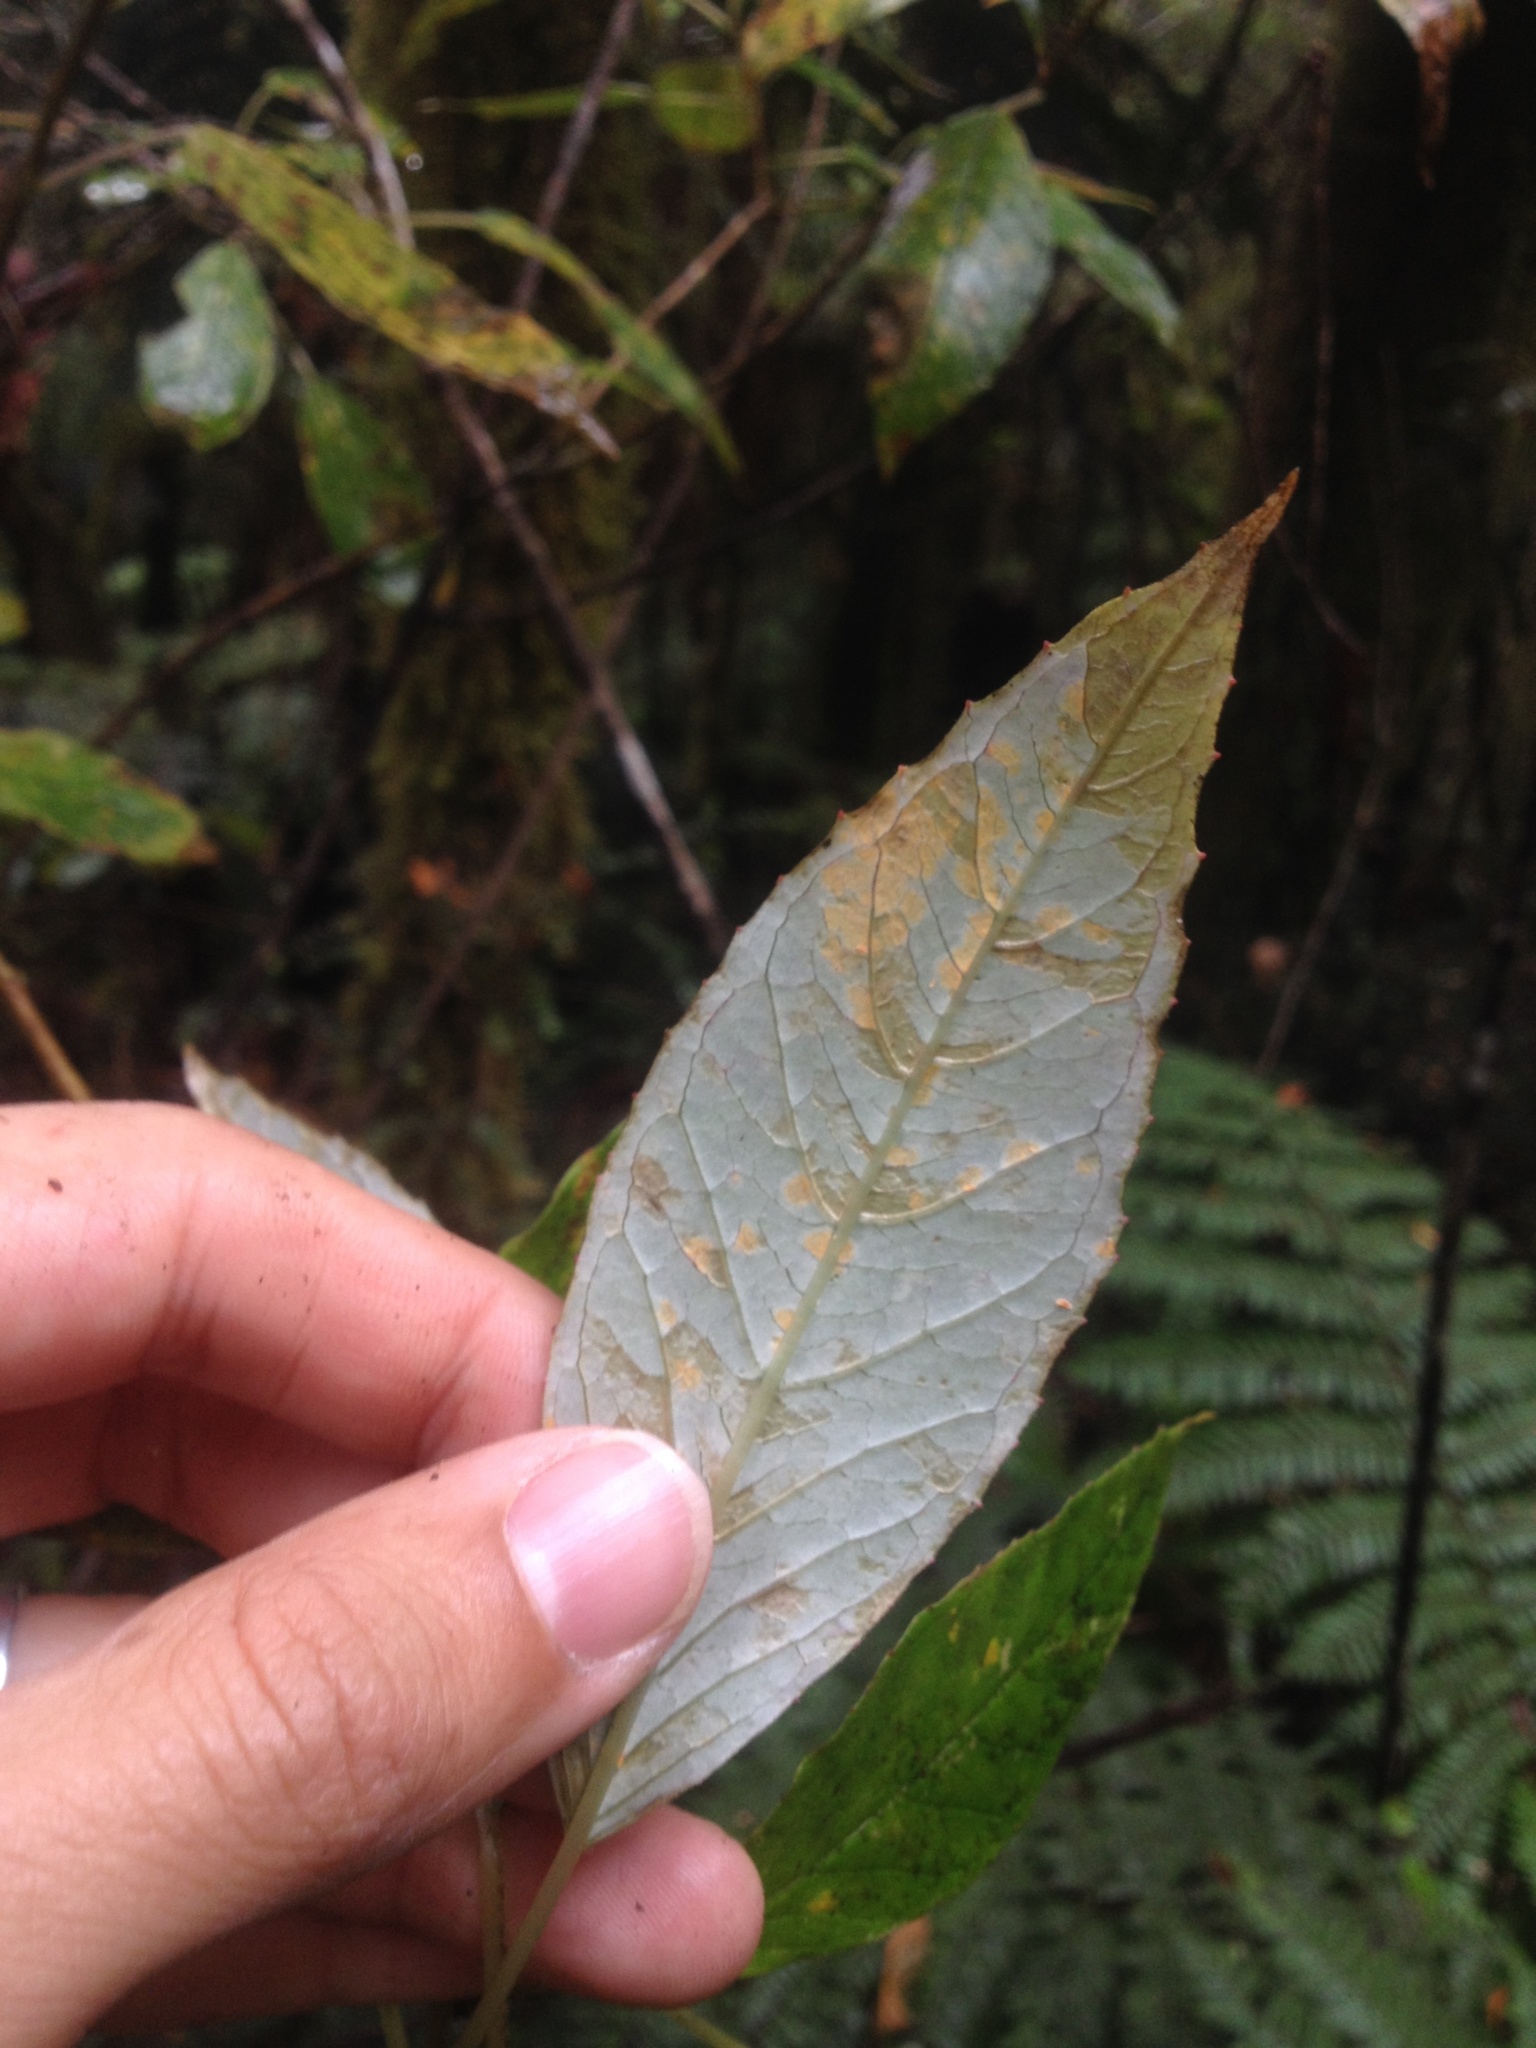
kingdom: Fungi
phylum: Basidiomycota
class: Pucciniomycetes
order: Pucciniales
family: Mikronegeriaceae
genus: Mikronegeria
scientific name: Mikronegeria fuchsiae
